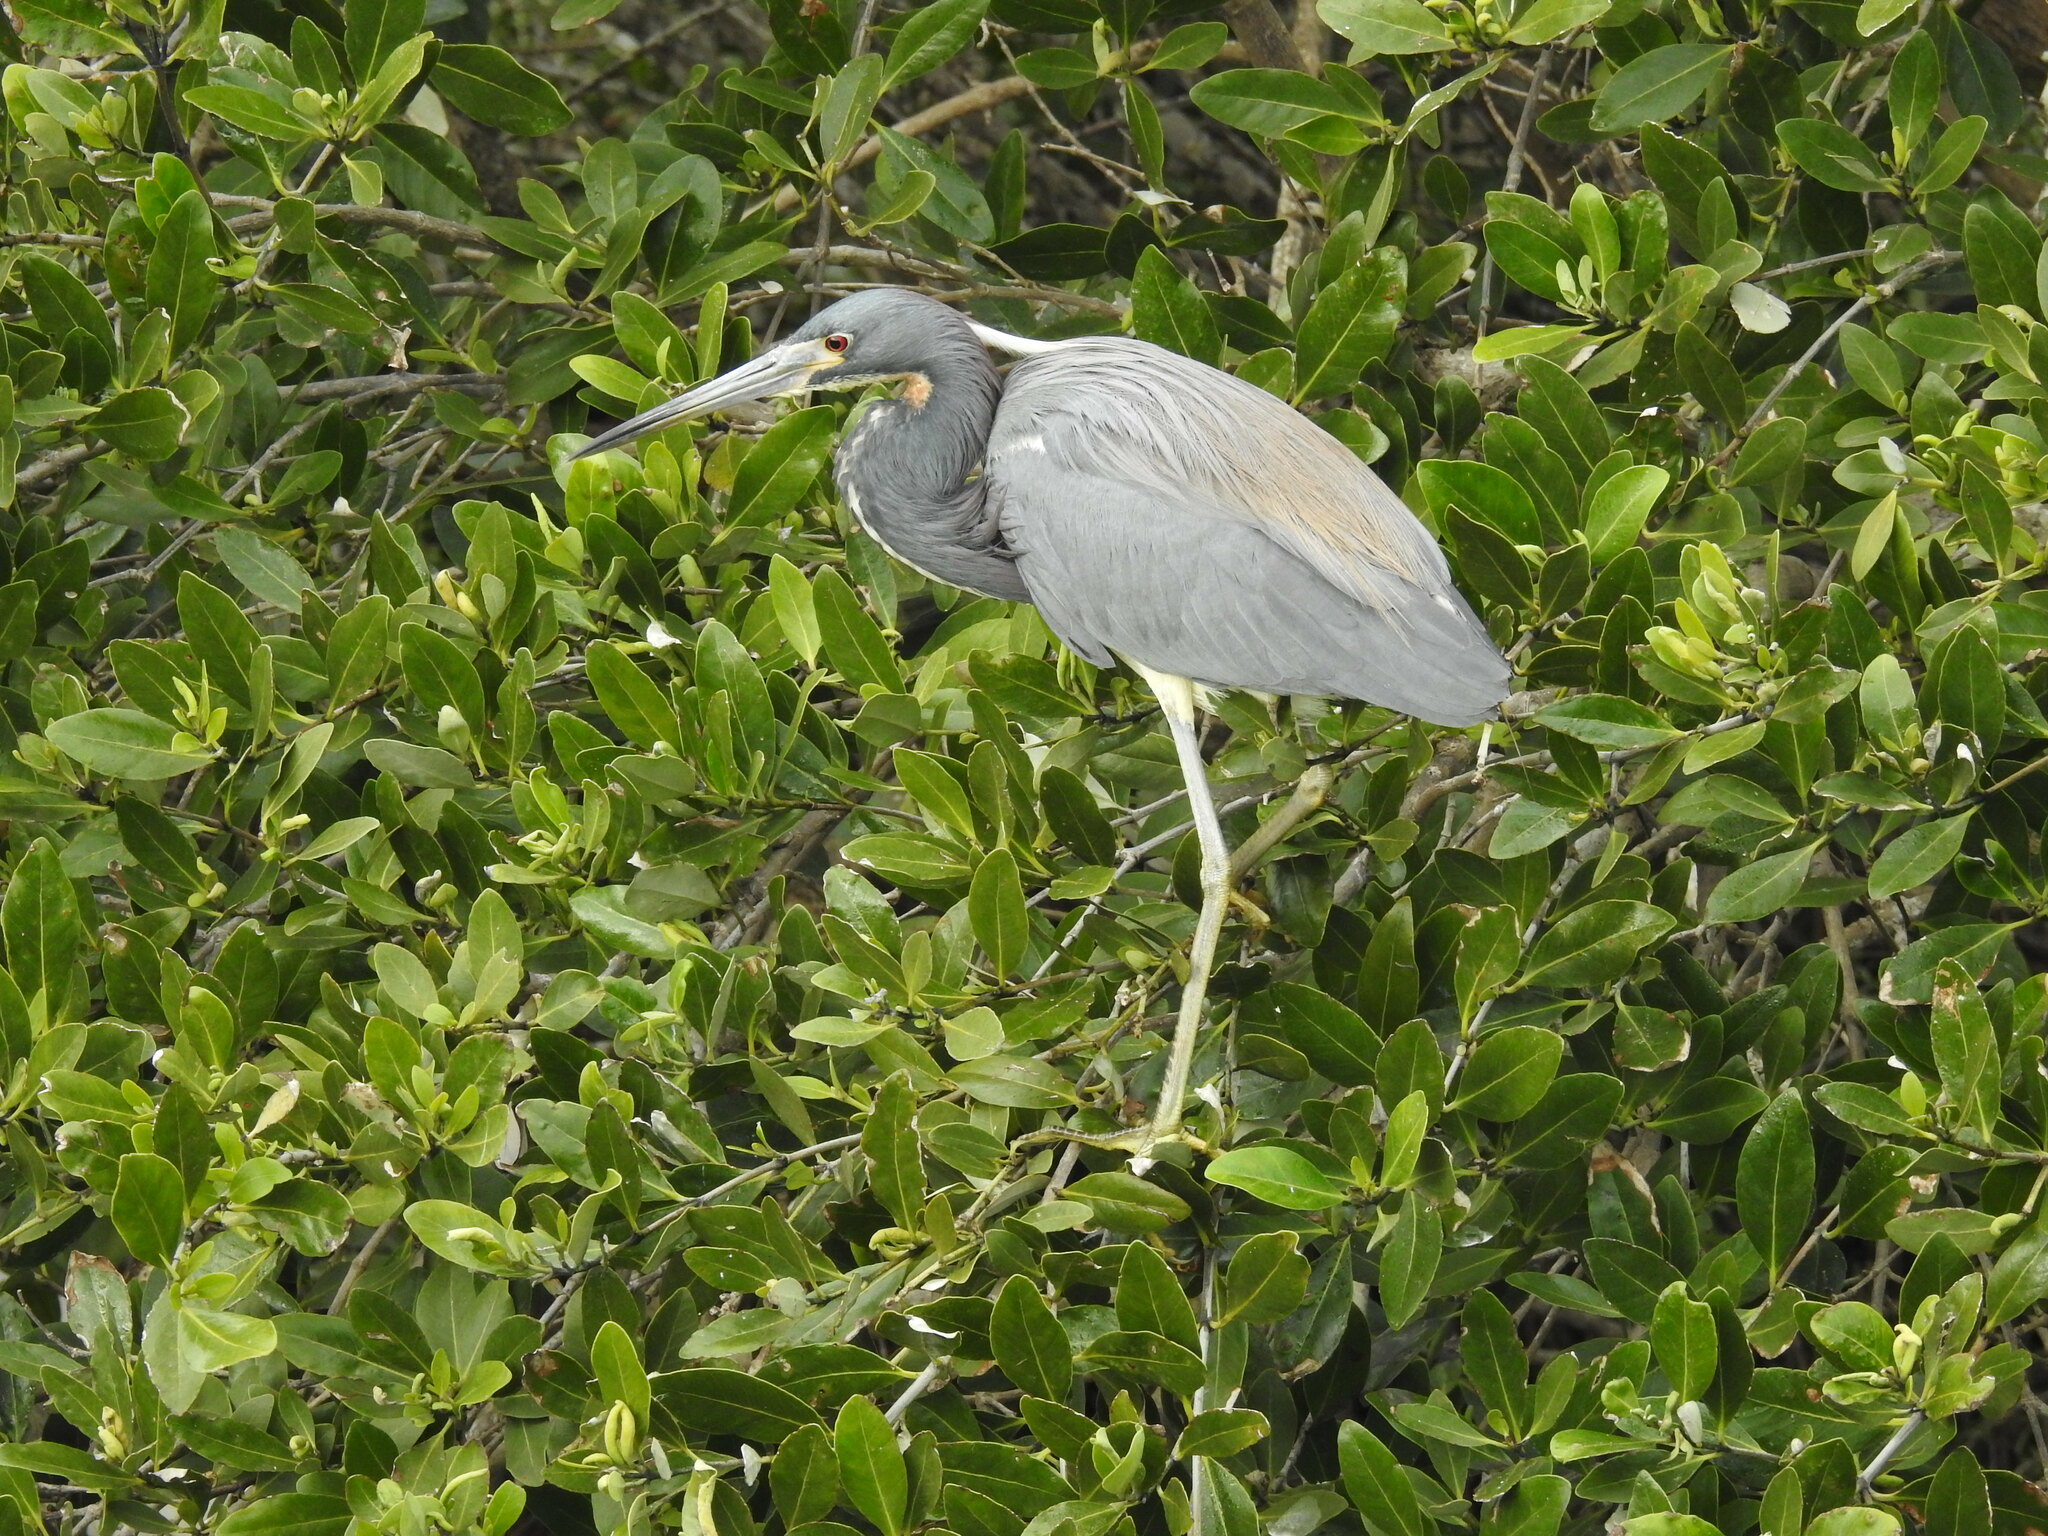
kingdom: Animalia
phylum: Chordata
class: Aves
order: Pelecaniformes
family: Ardeidae
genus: Egretta
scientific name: Egretta tricolor
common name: Tricolored heron
